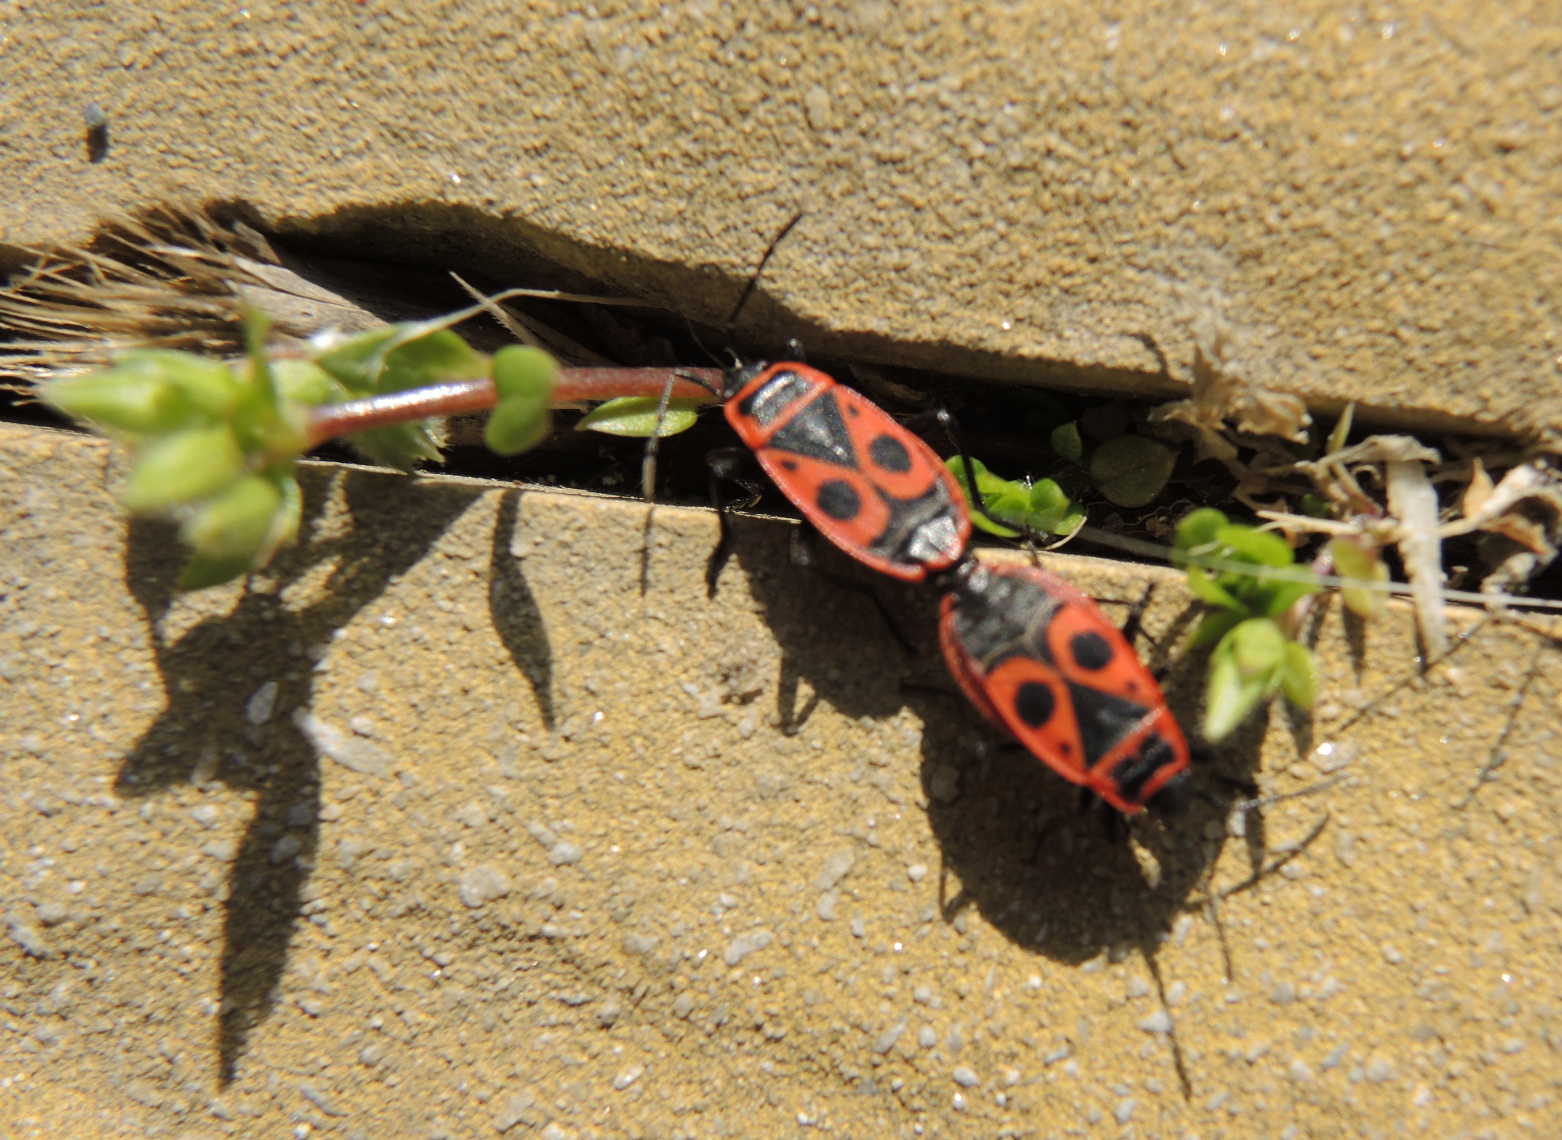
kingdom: Animalia
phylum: Arthropoda
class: Insecta
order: Hemiptera
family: Pyrrhocoridae
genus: Pyrrhocoris
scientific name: Pyrrhocoris apterus
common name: Firebug
